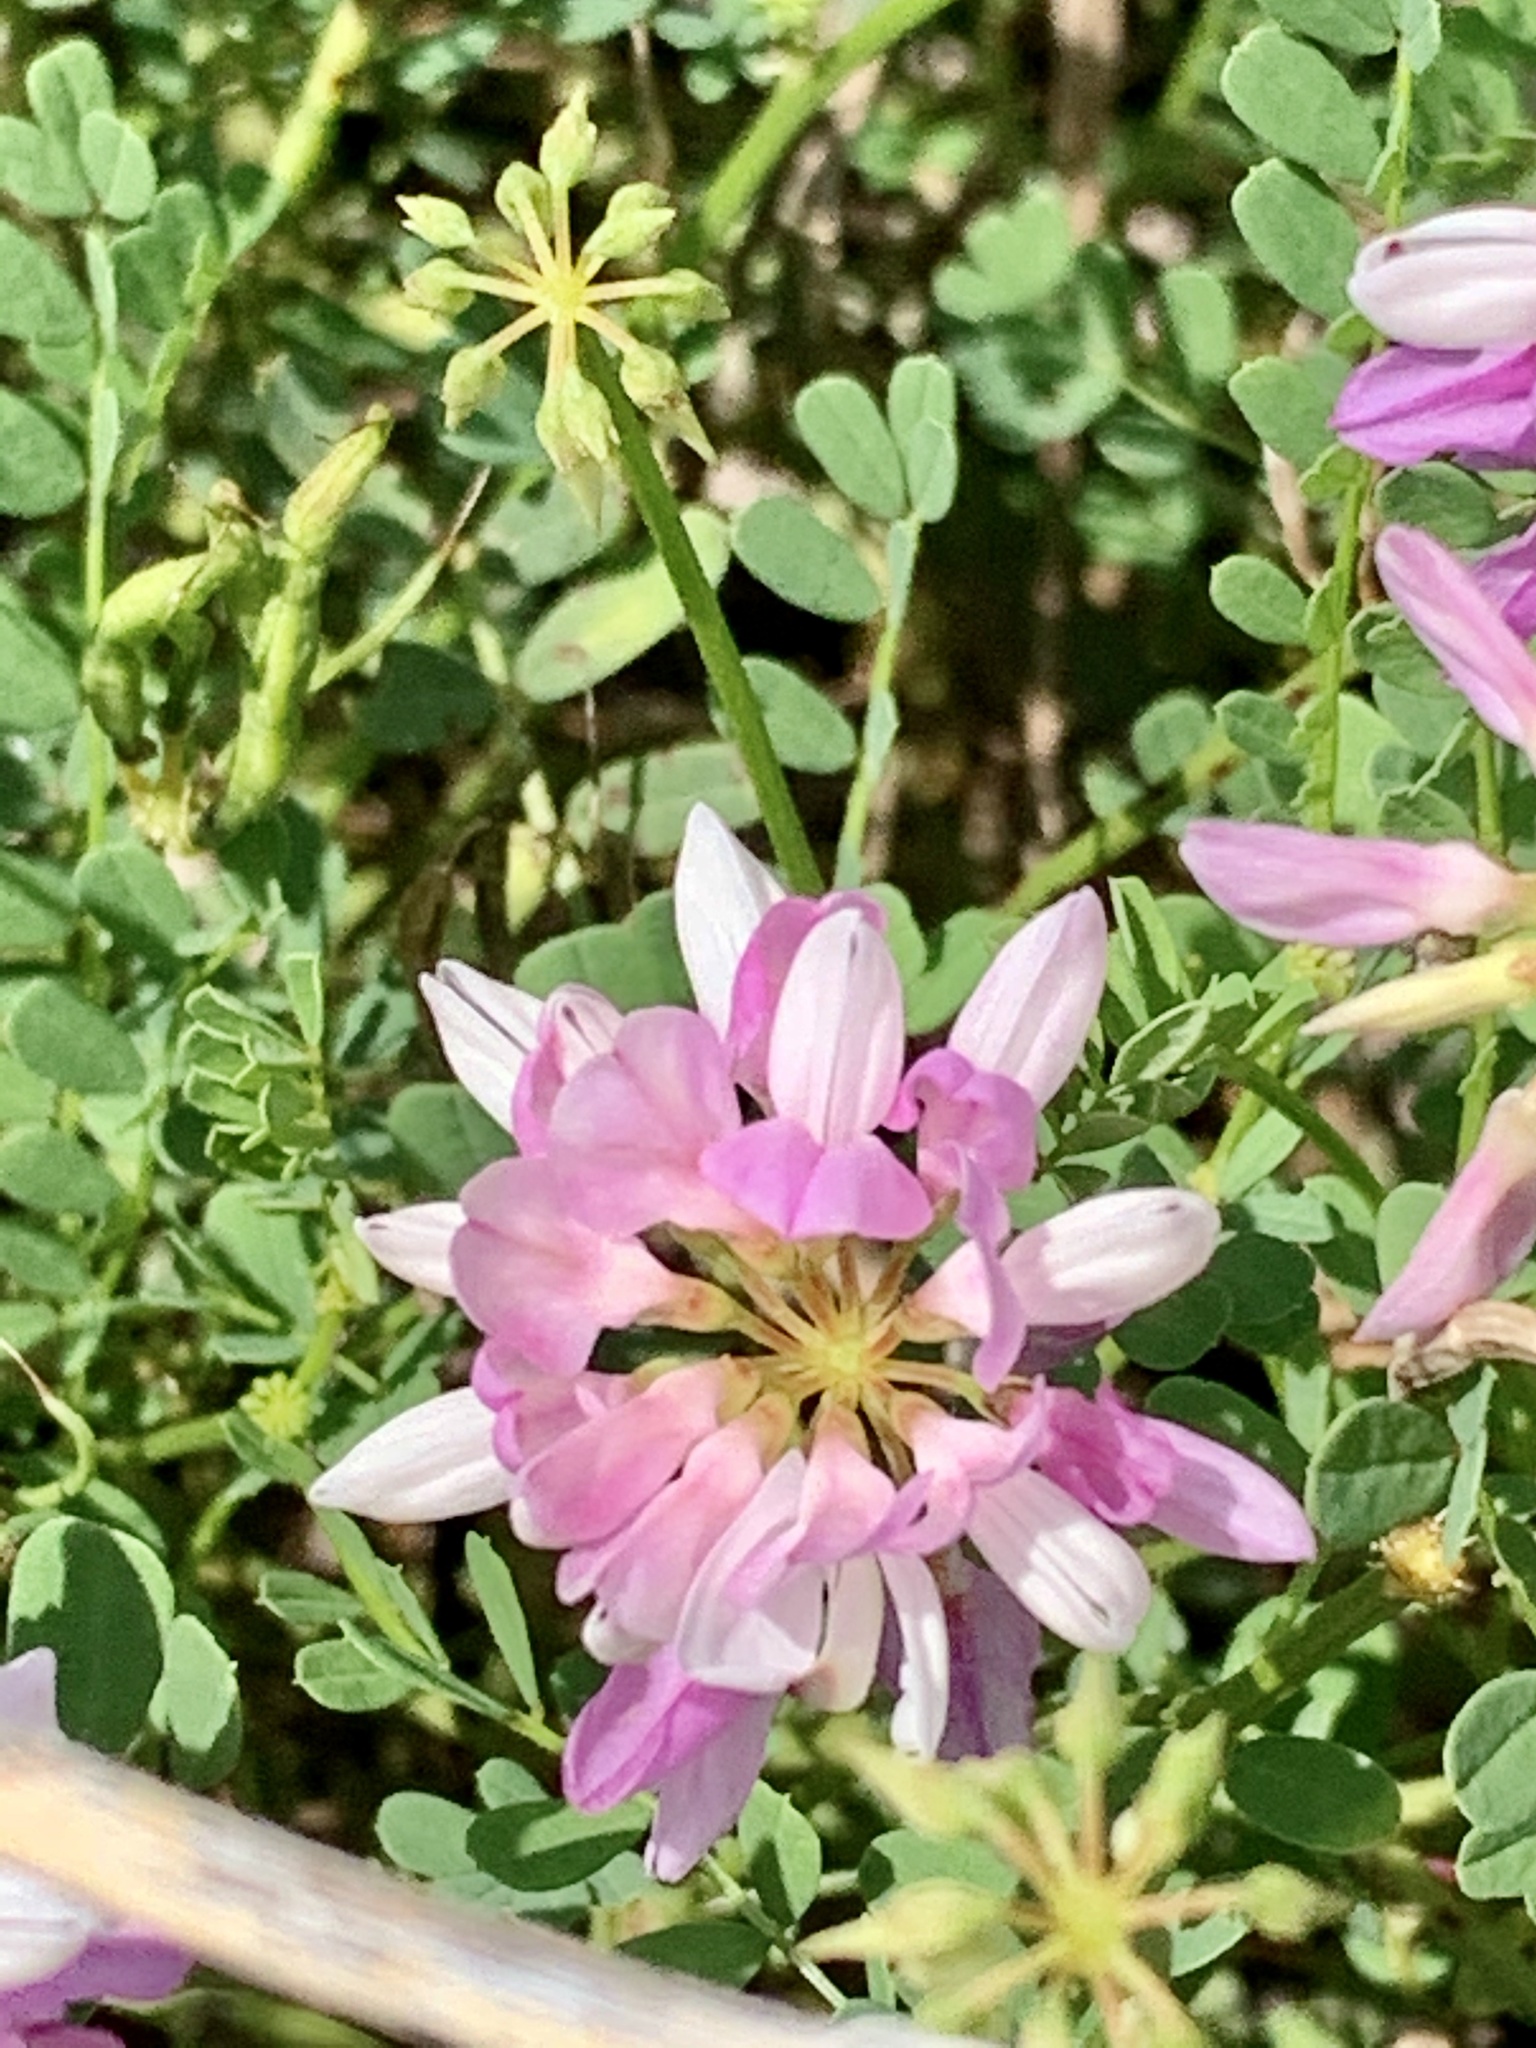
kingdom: Plantae
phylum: Tracheophyta
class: Magnoliopsida
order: Fabales
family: Fabaceae
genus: Coronilla
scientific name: Coronilla varia
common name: Crownvetch
